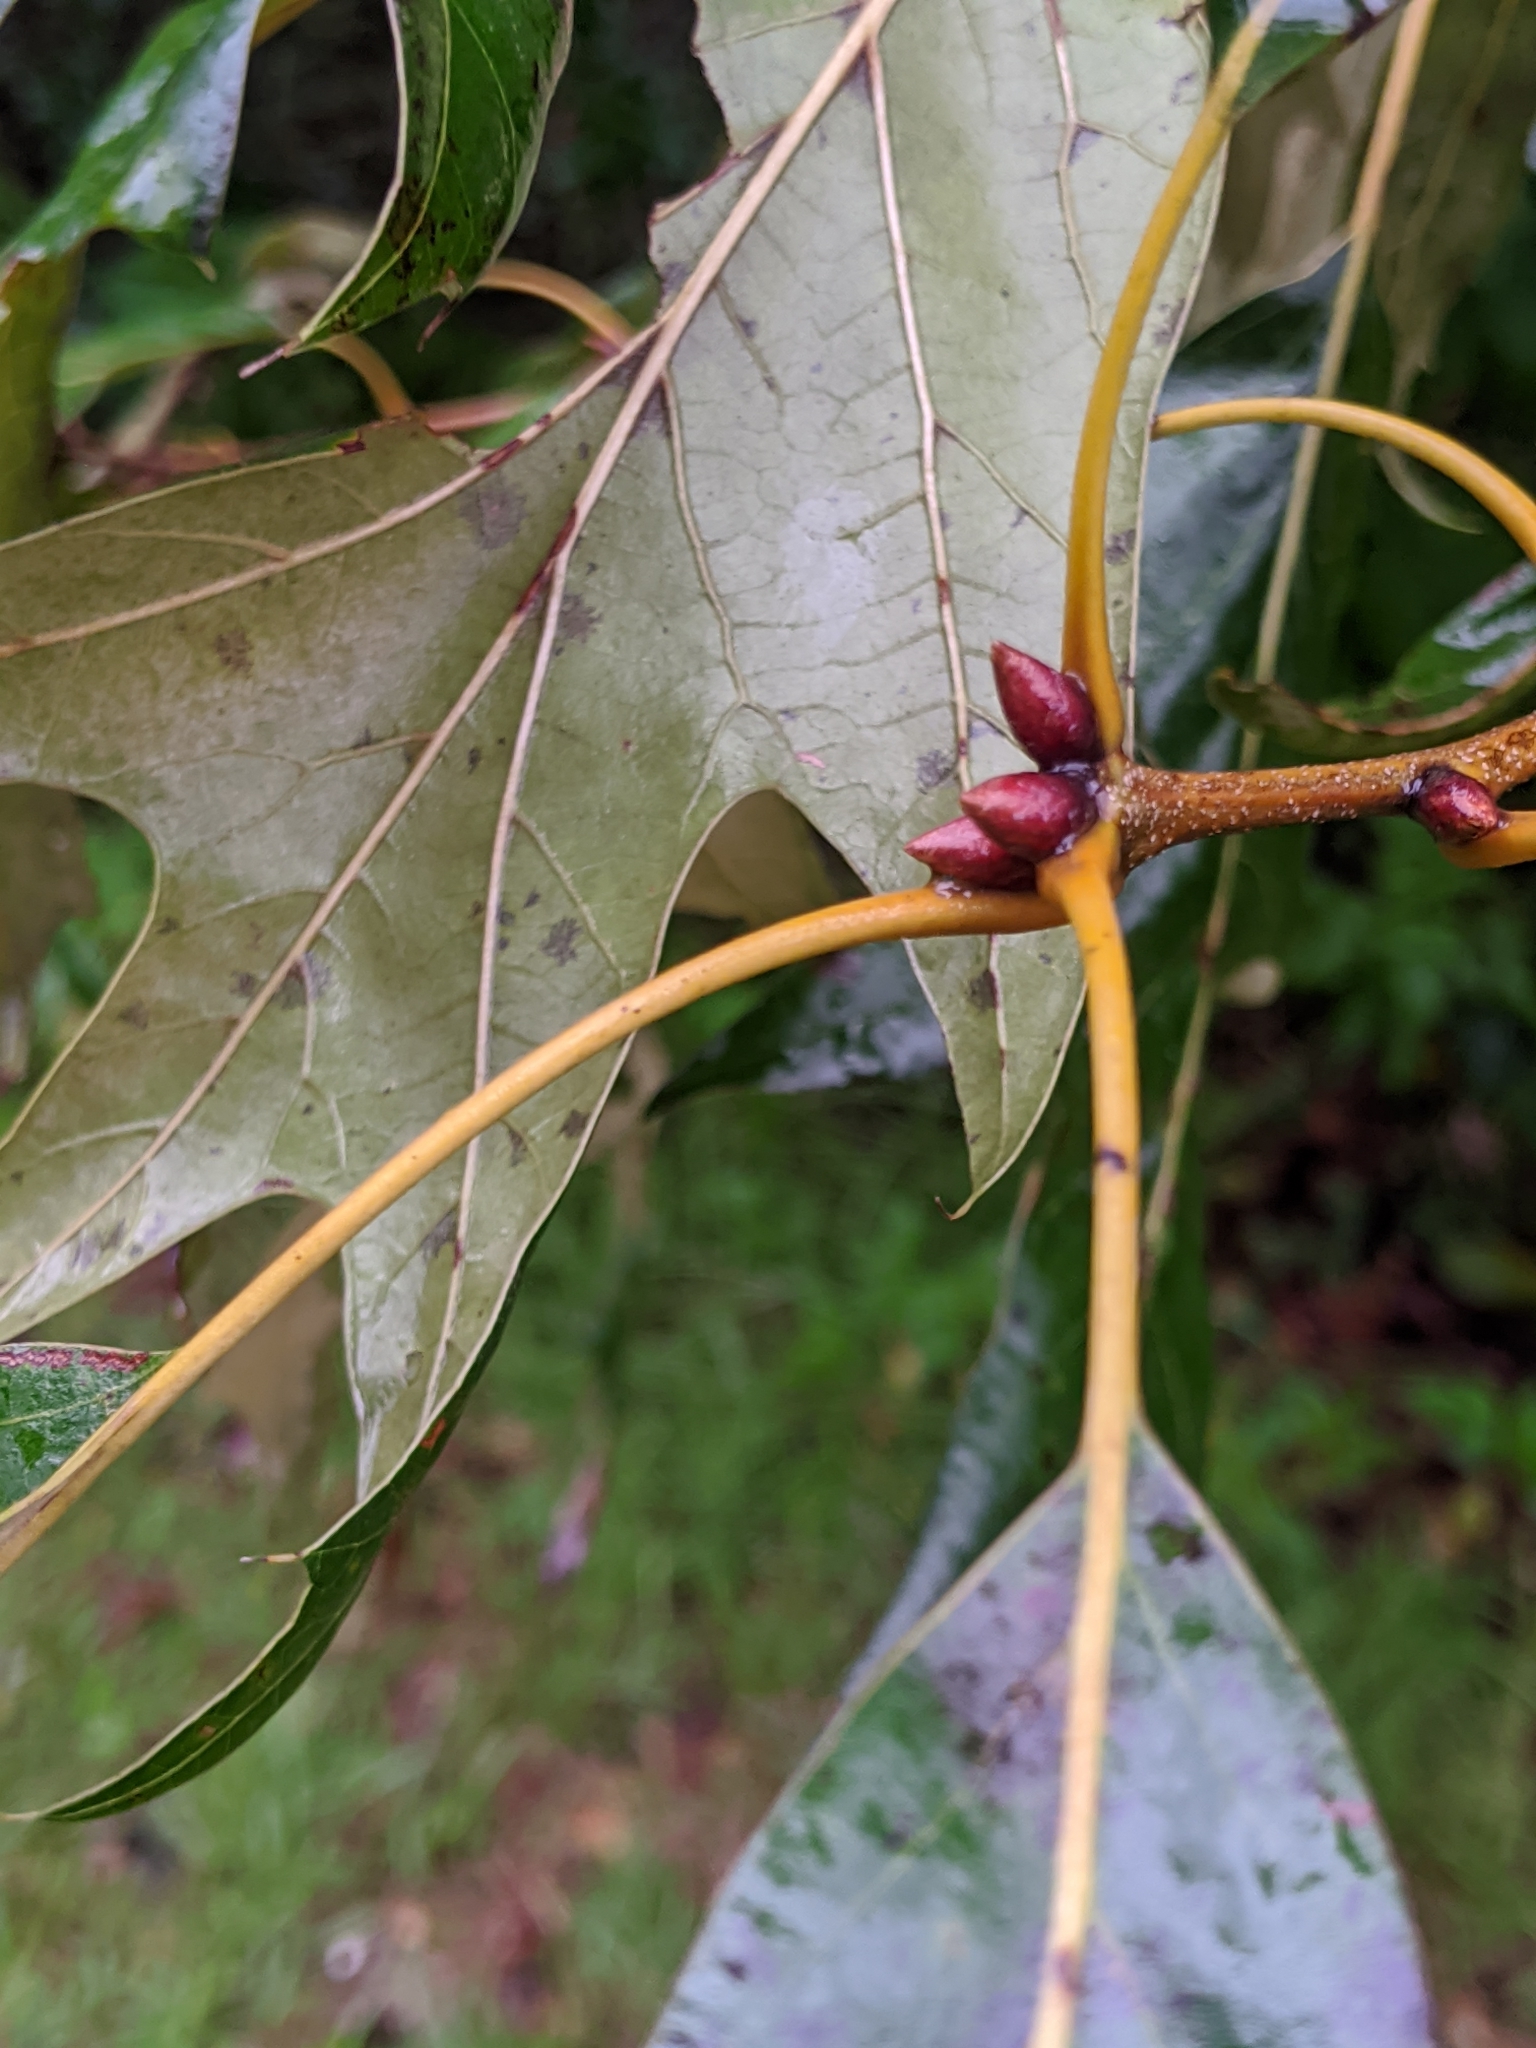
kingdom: Plantae
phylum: Tracheophyta
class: Magnoliopsida
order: Fagales
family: Fagaceae
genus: Quercus
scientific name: Quercus falcata
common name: Southern red oak
